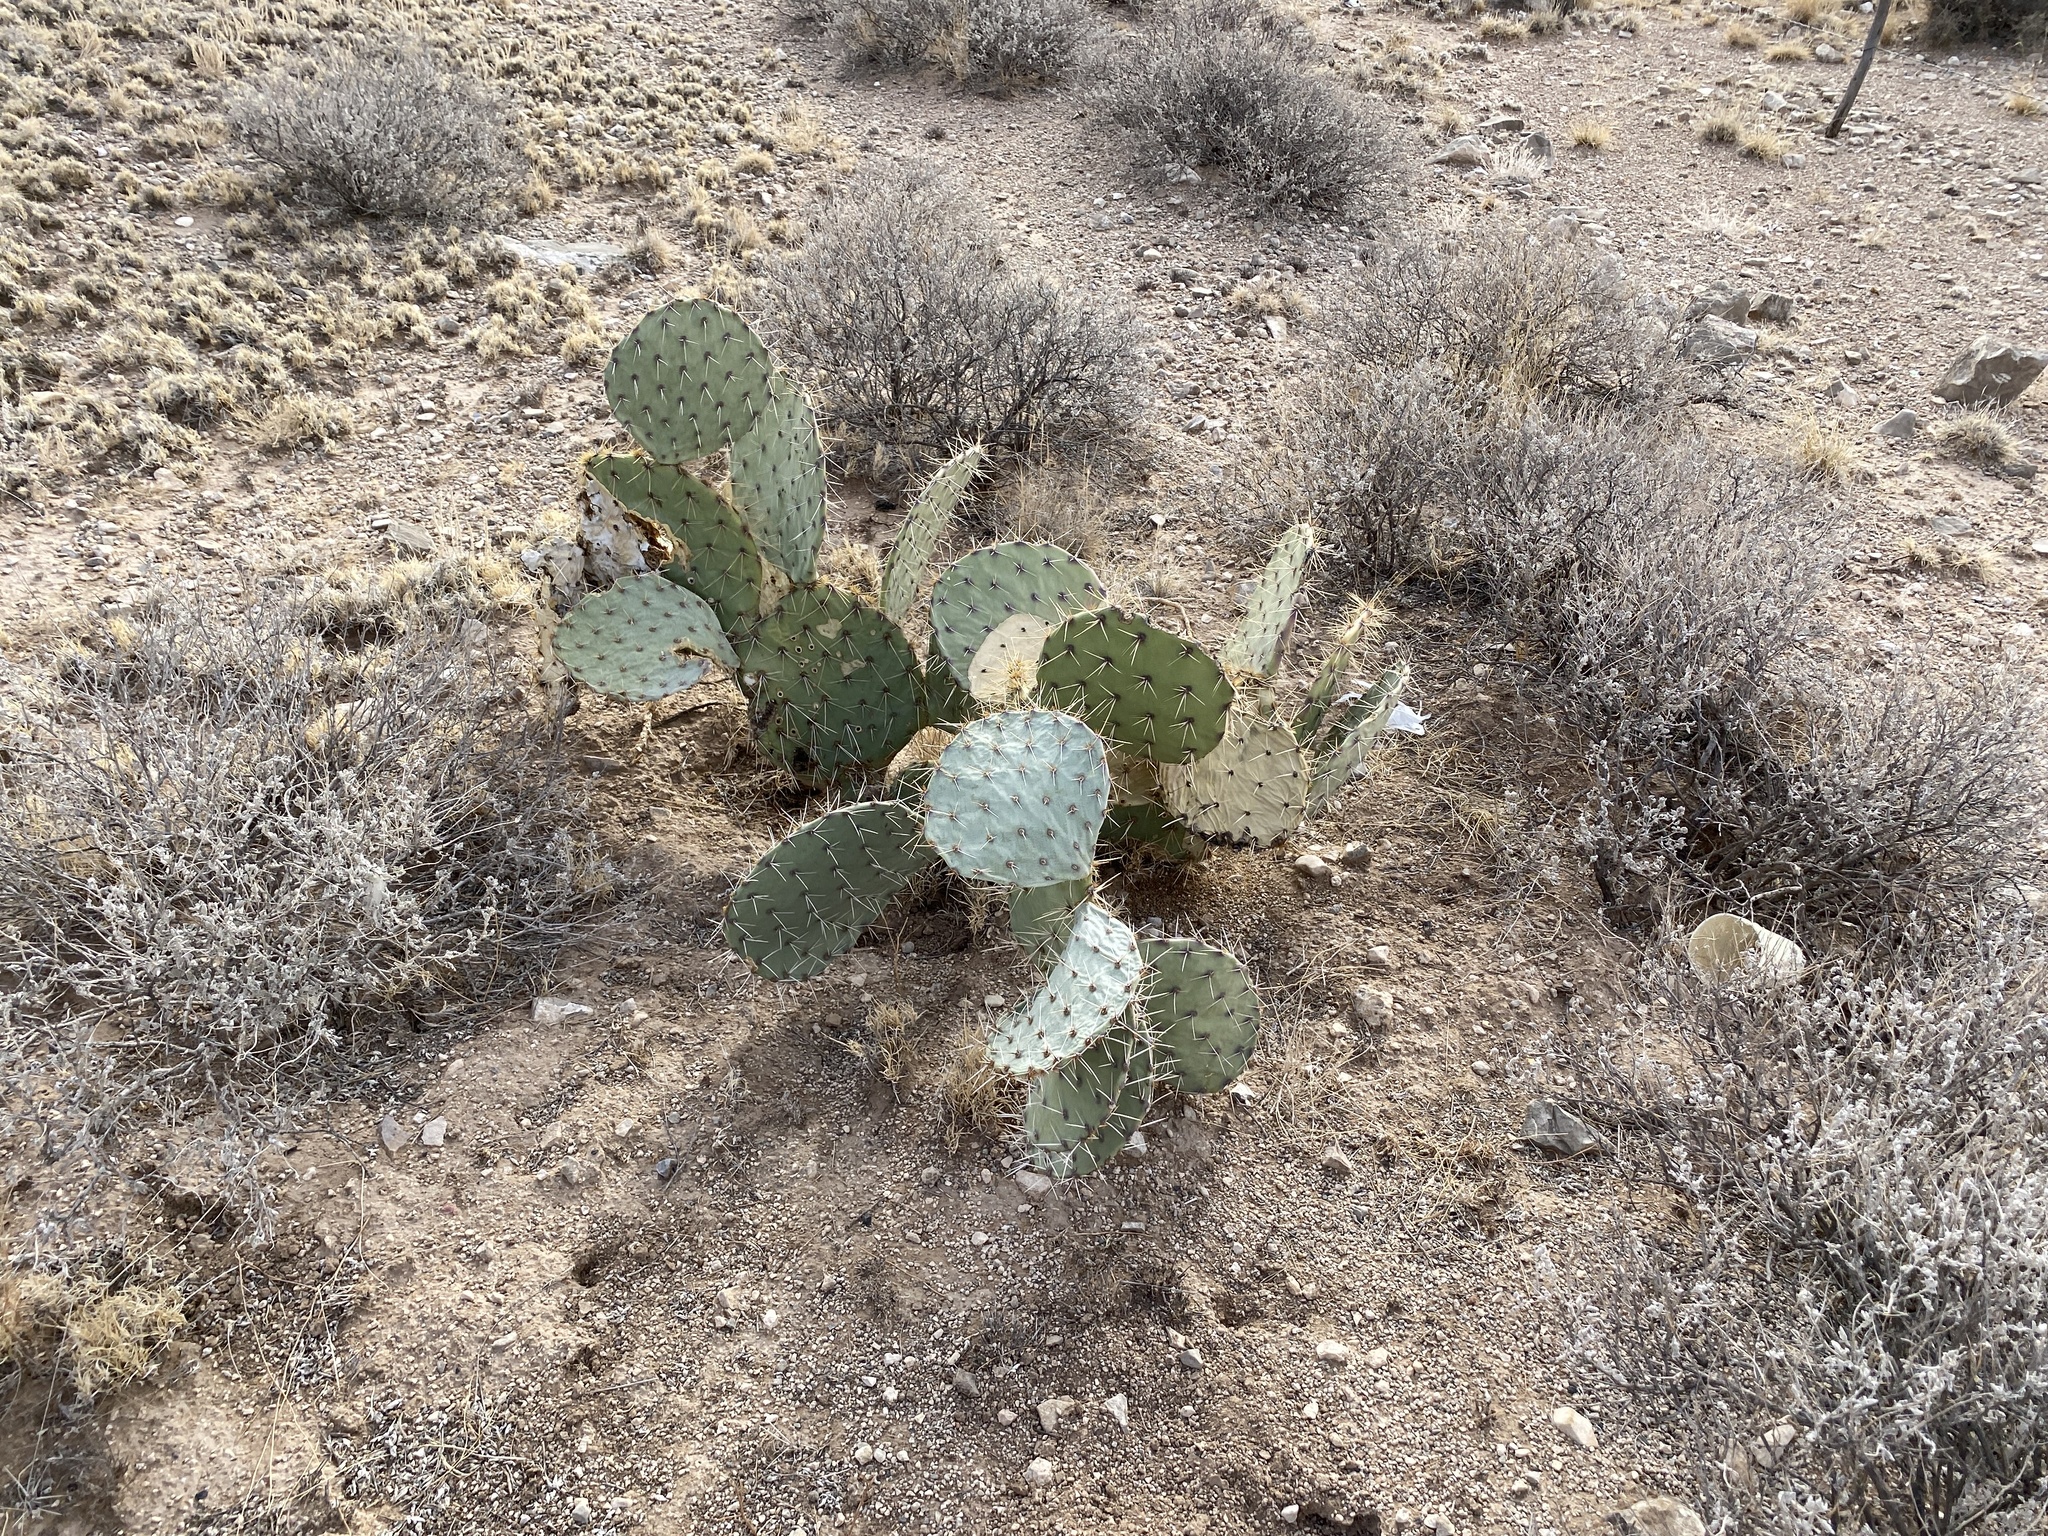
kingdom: Plantae
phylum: Tracheophyta
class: Magnoliopsida
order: Caryophyllales
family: Cactaceae
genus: Opuntia
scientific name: Opuntia engelmannii
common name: Cactus-apple
